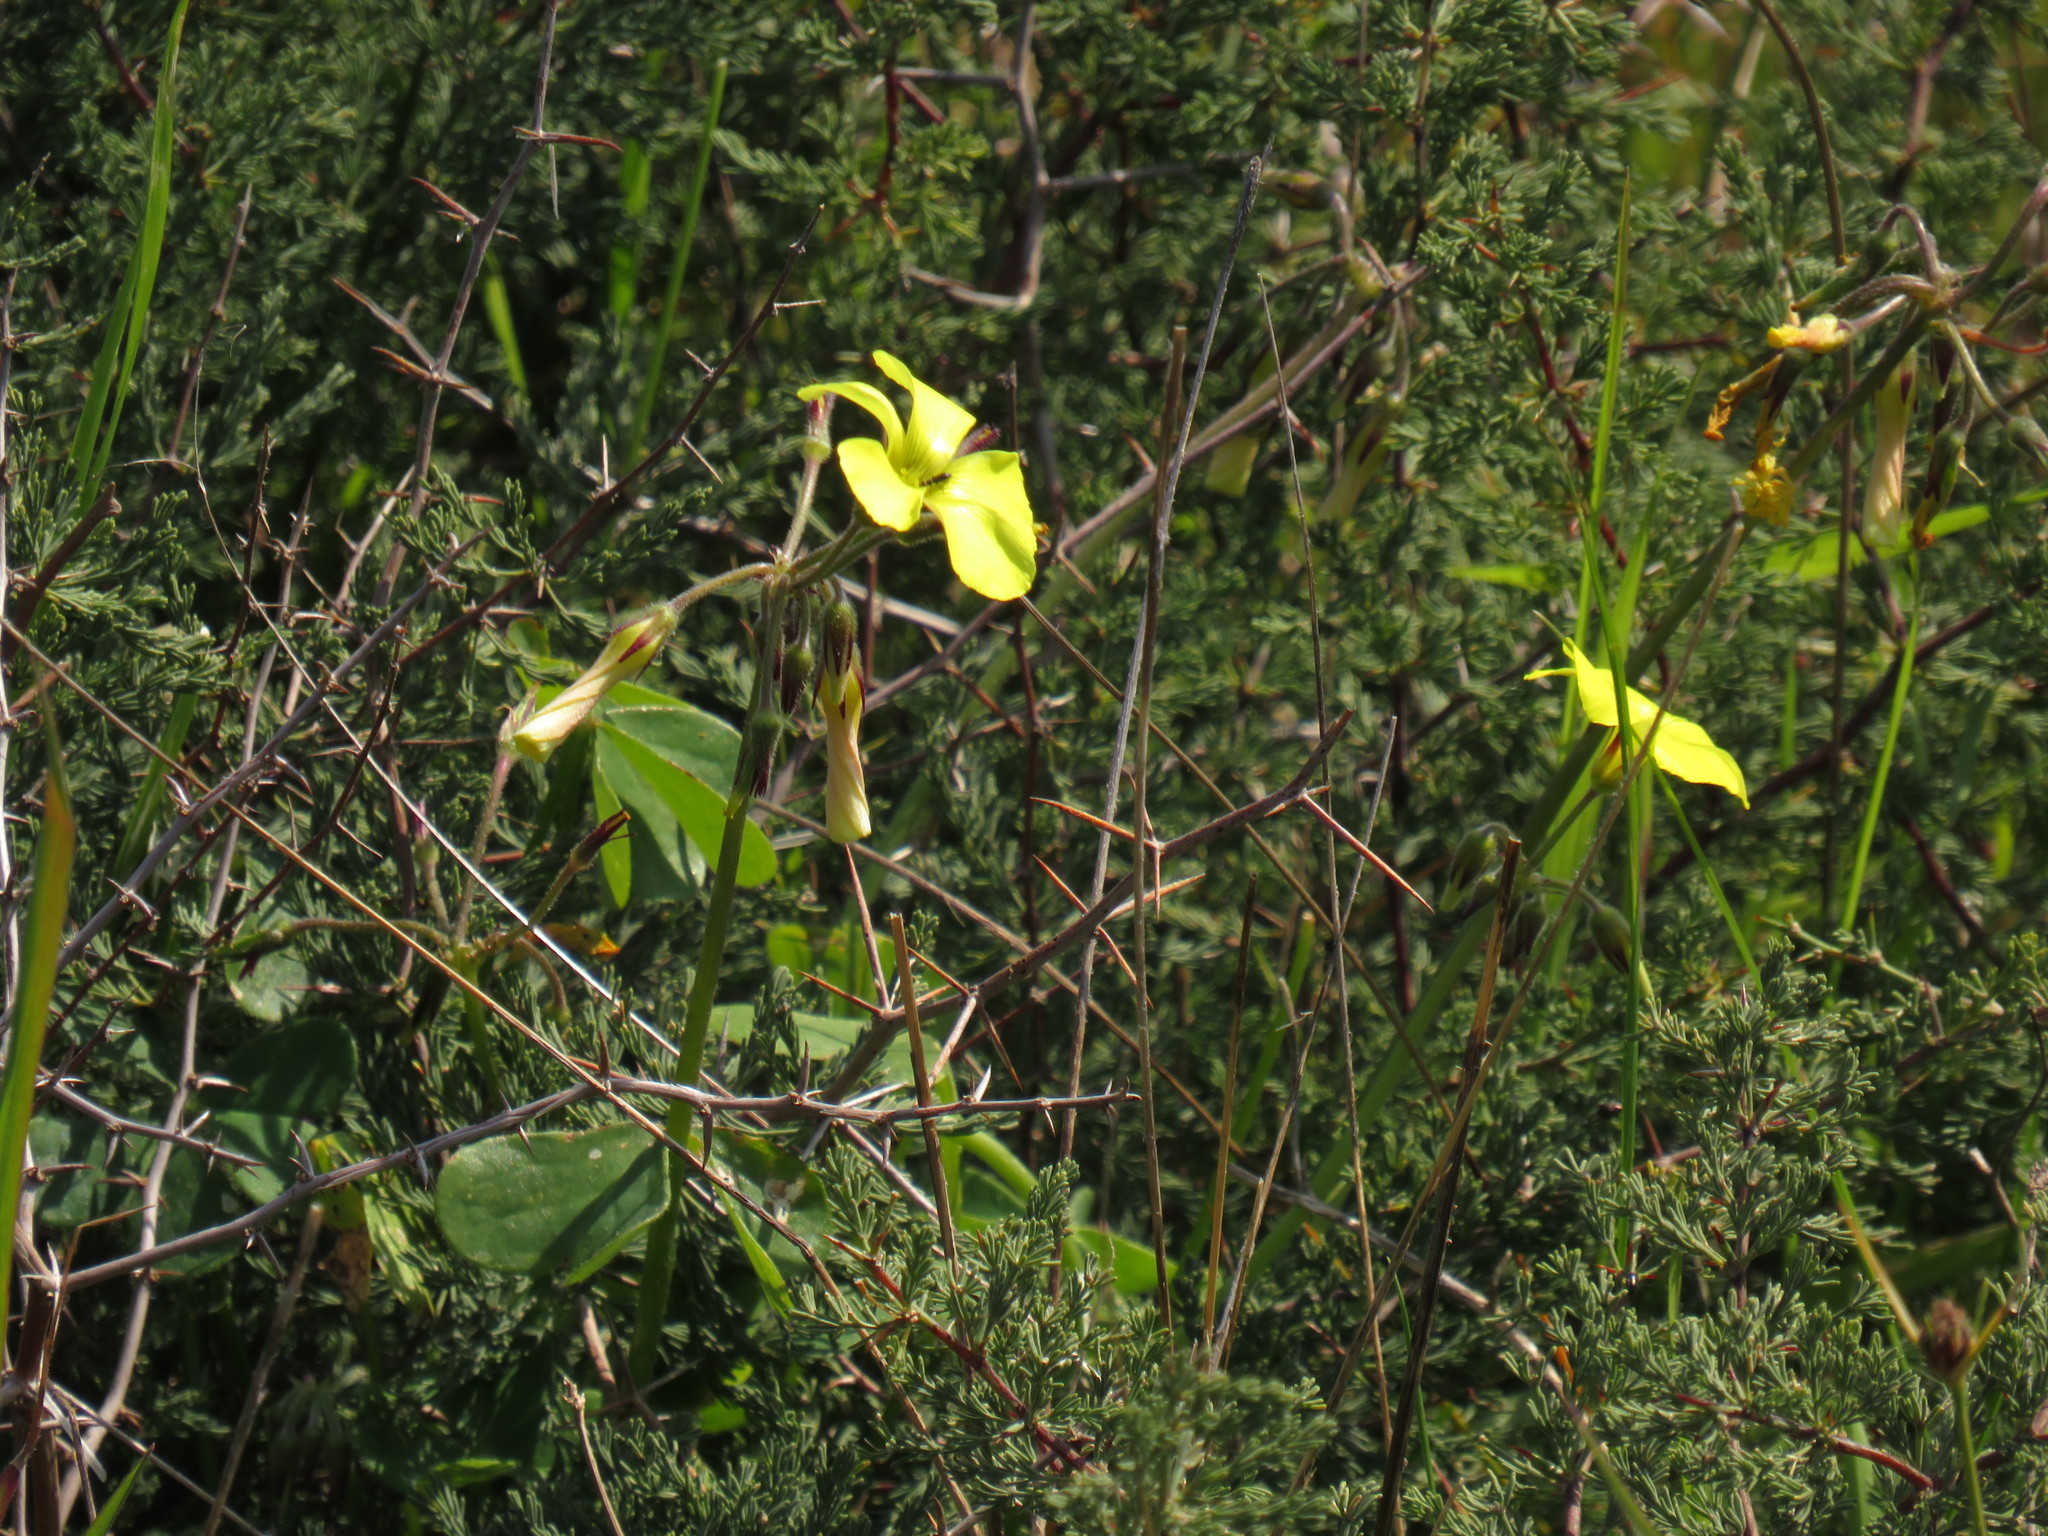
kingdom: Plantae
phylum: Tracheophyta
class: Magnoliopsida
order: Oxalidales
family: Oxalidaceae
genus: Oxalis
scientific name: Oxalis pes-caprae
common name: Bermuda-buttercup
